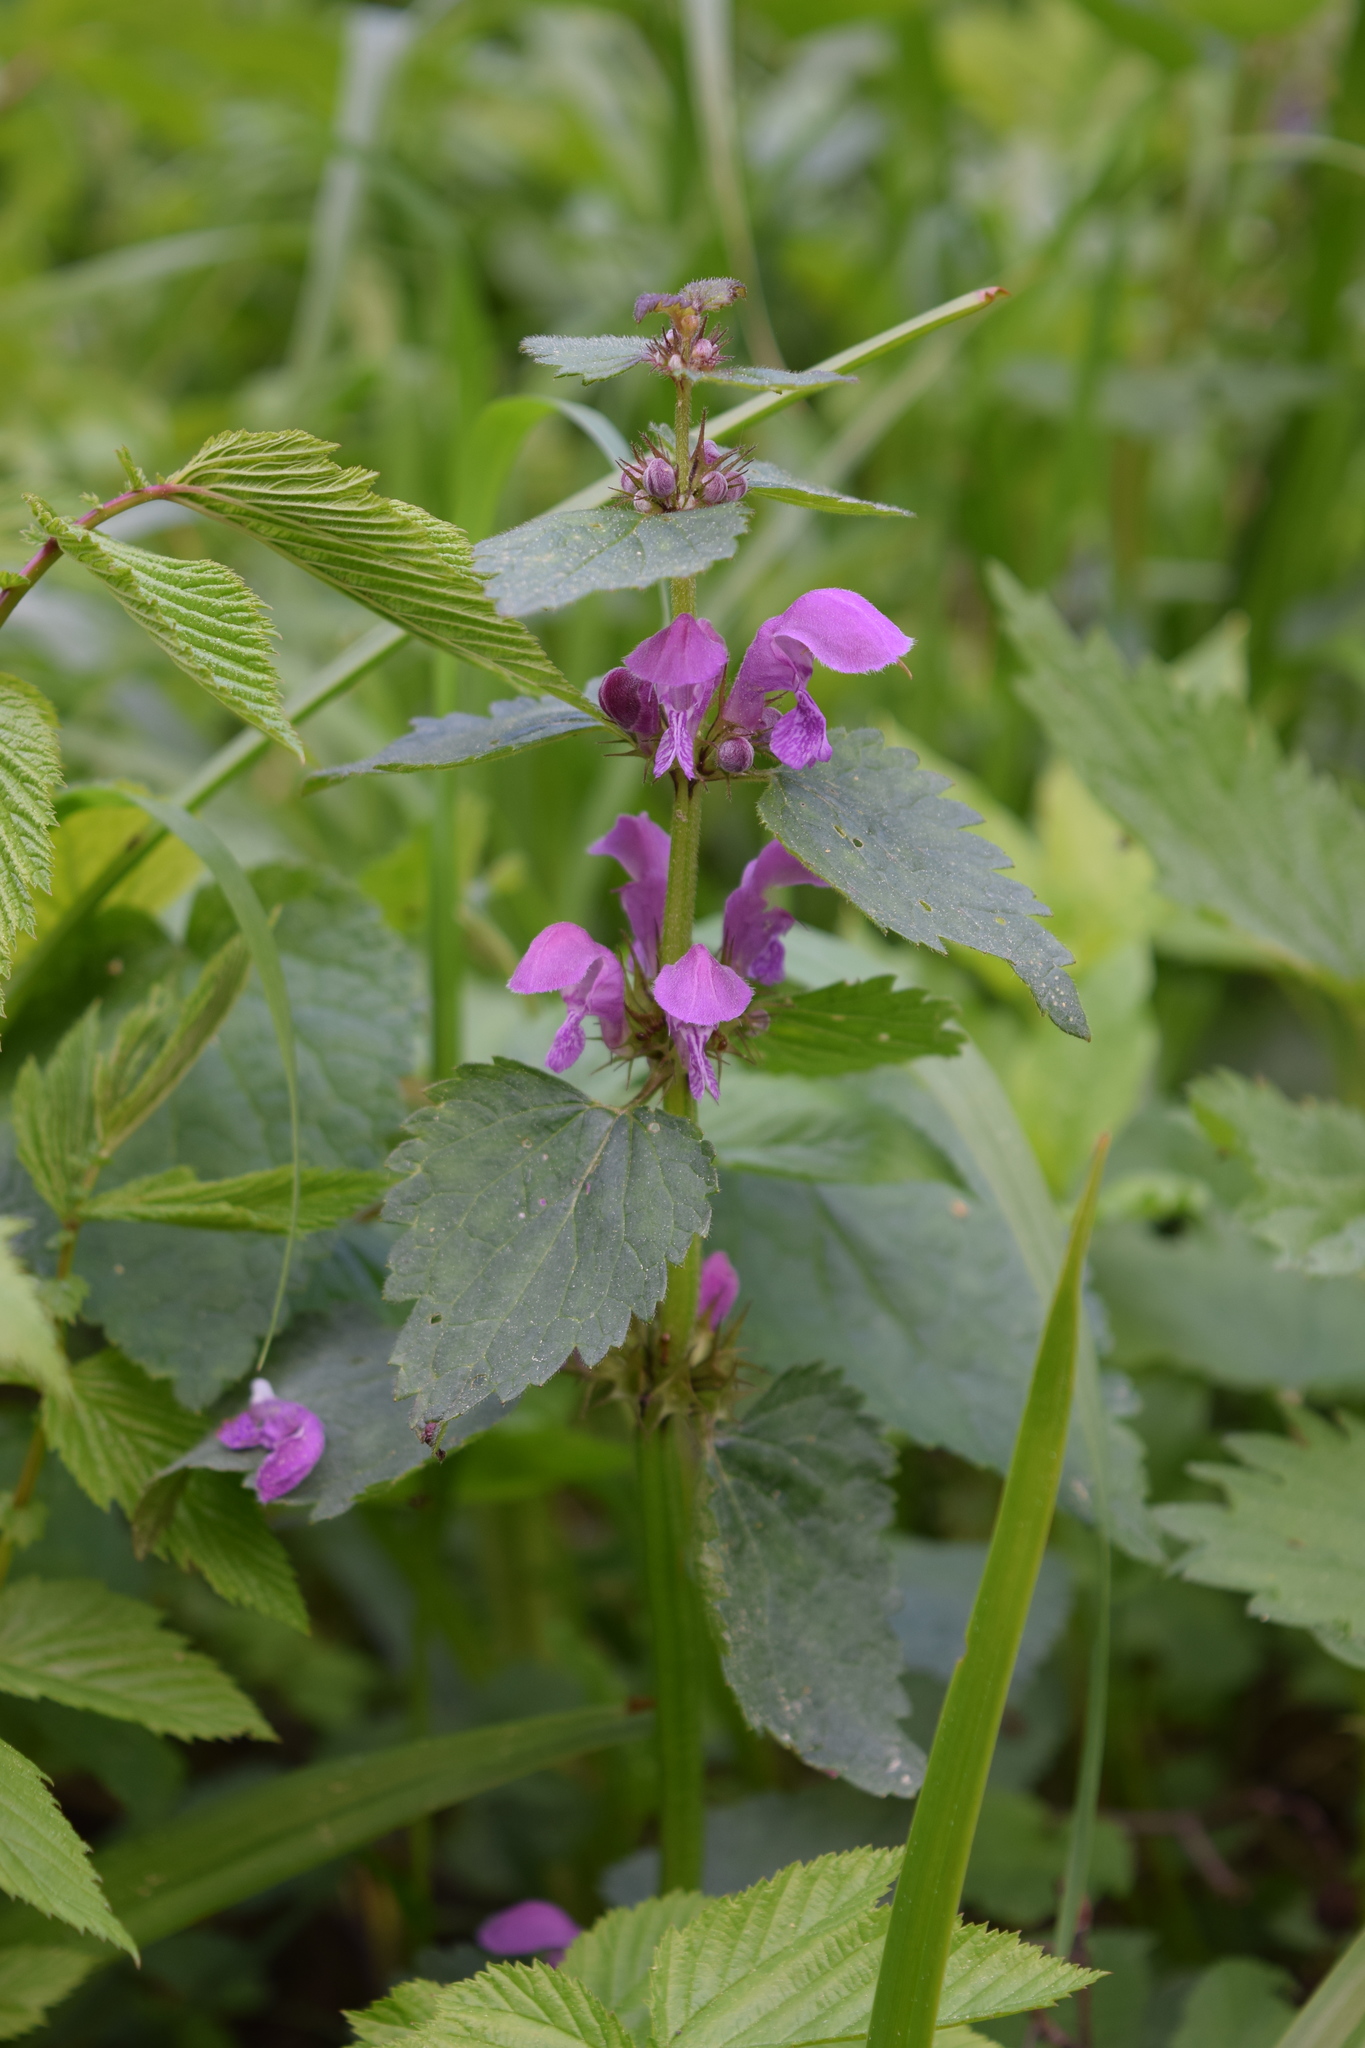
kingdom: Plantae
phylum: Tracheophyta
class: Magnoliopsida
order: Lamiales
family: Lamiaceae
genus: Lamium
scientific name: Lamium maculatum
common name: Spotted dead-nettle
